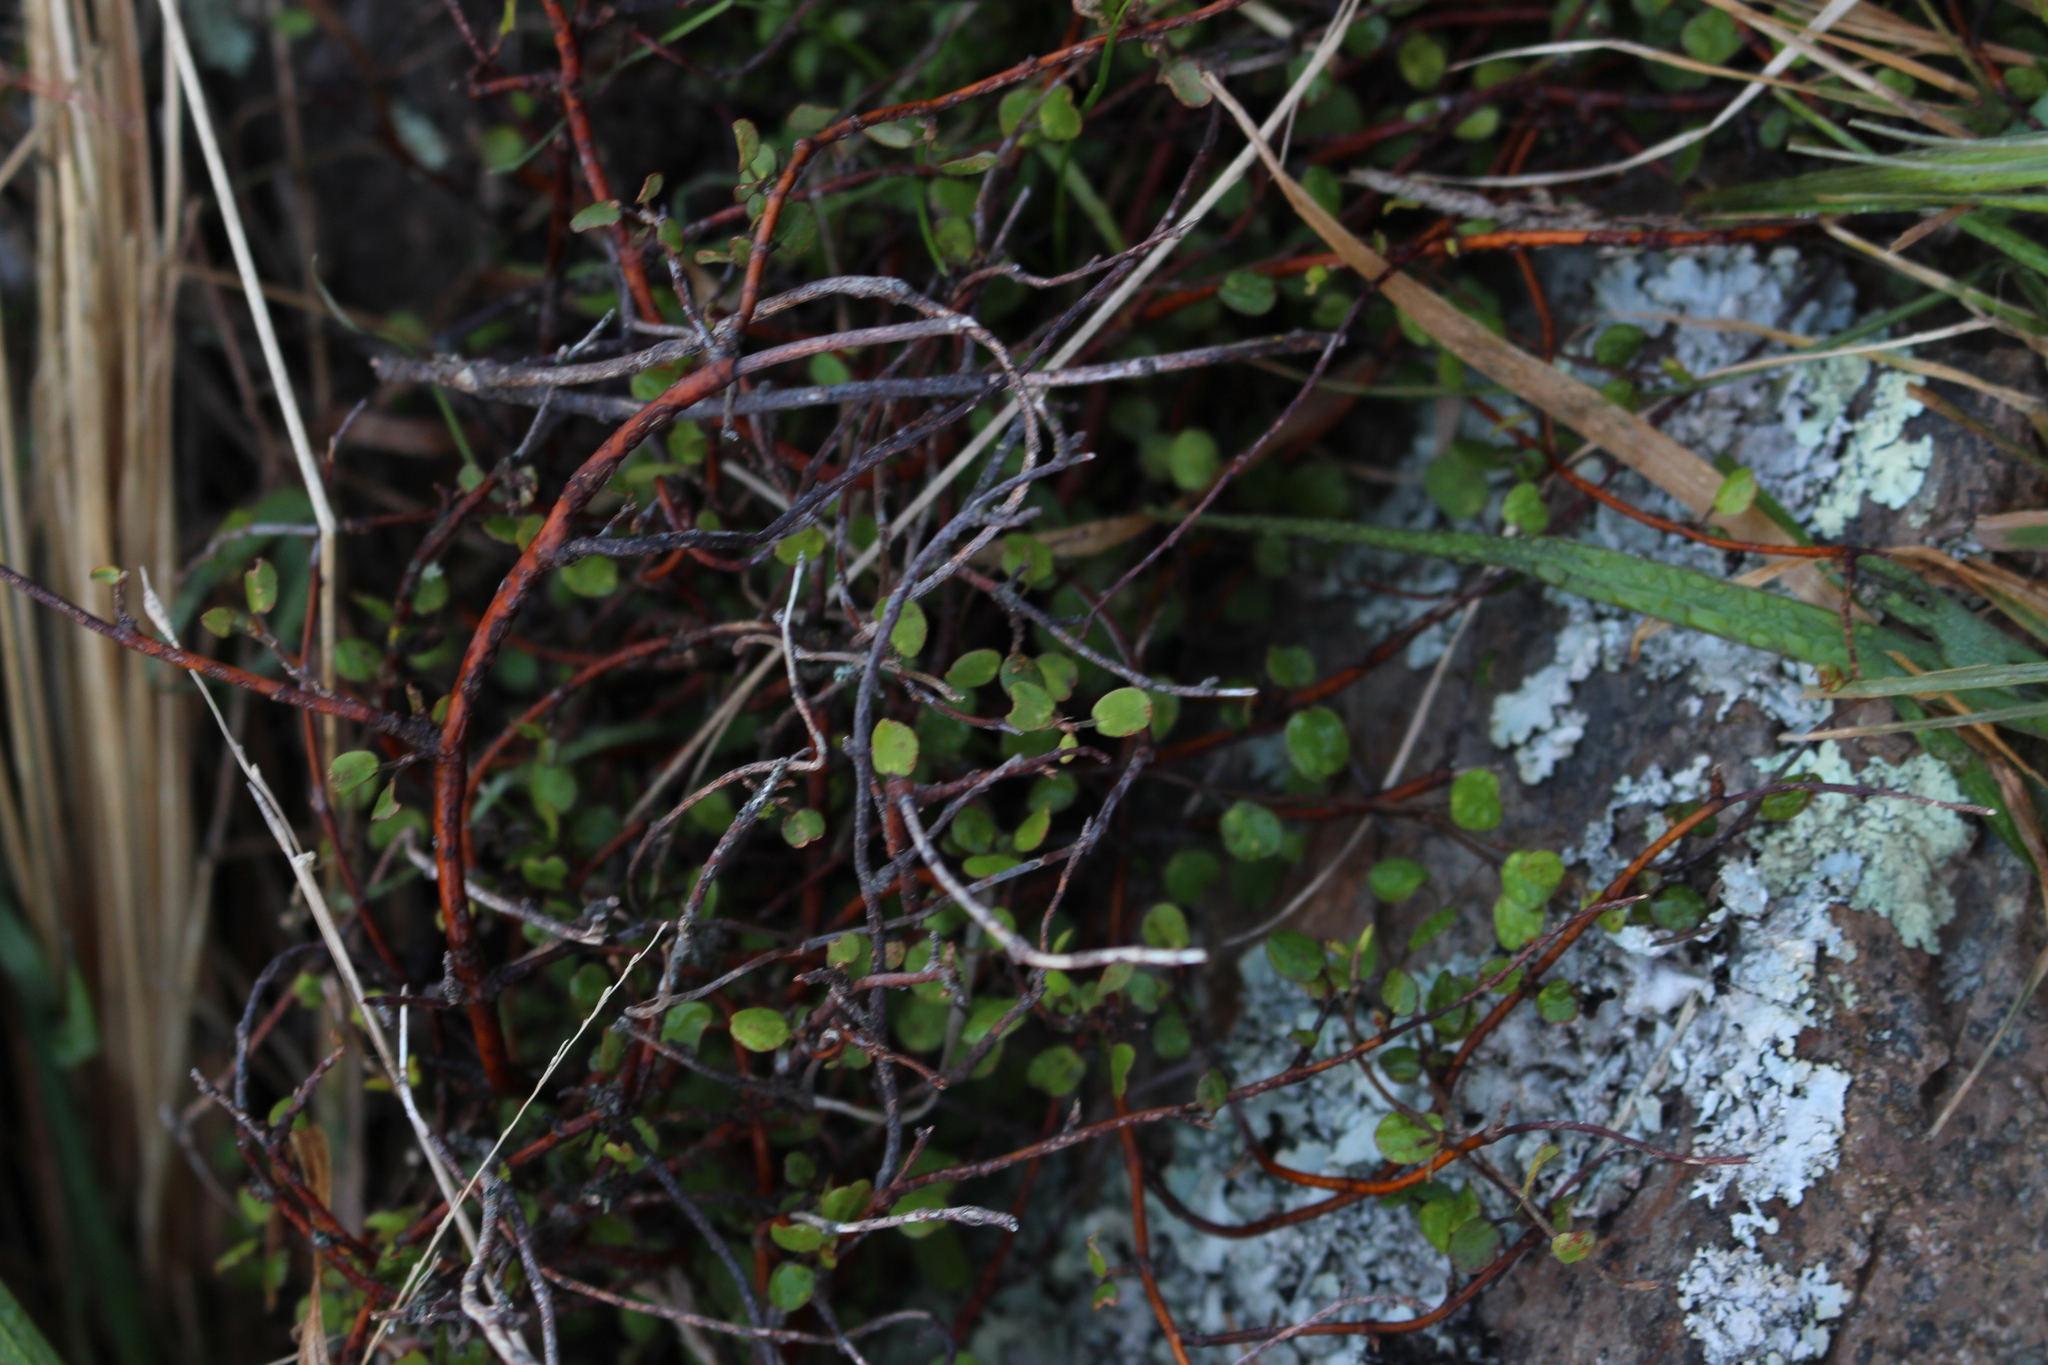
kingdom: Plantae
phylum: Tracheophyta
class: Magnoliopsida
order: Caryophyllales
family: Polygonaceae
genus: Muehlenbeckia
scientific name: Muehlenbeckia complexa
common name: Wireplant
